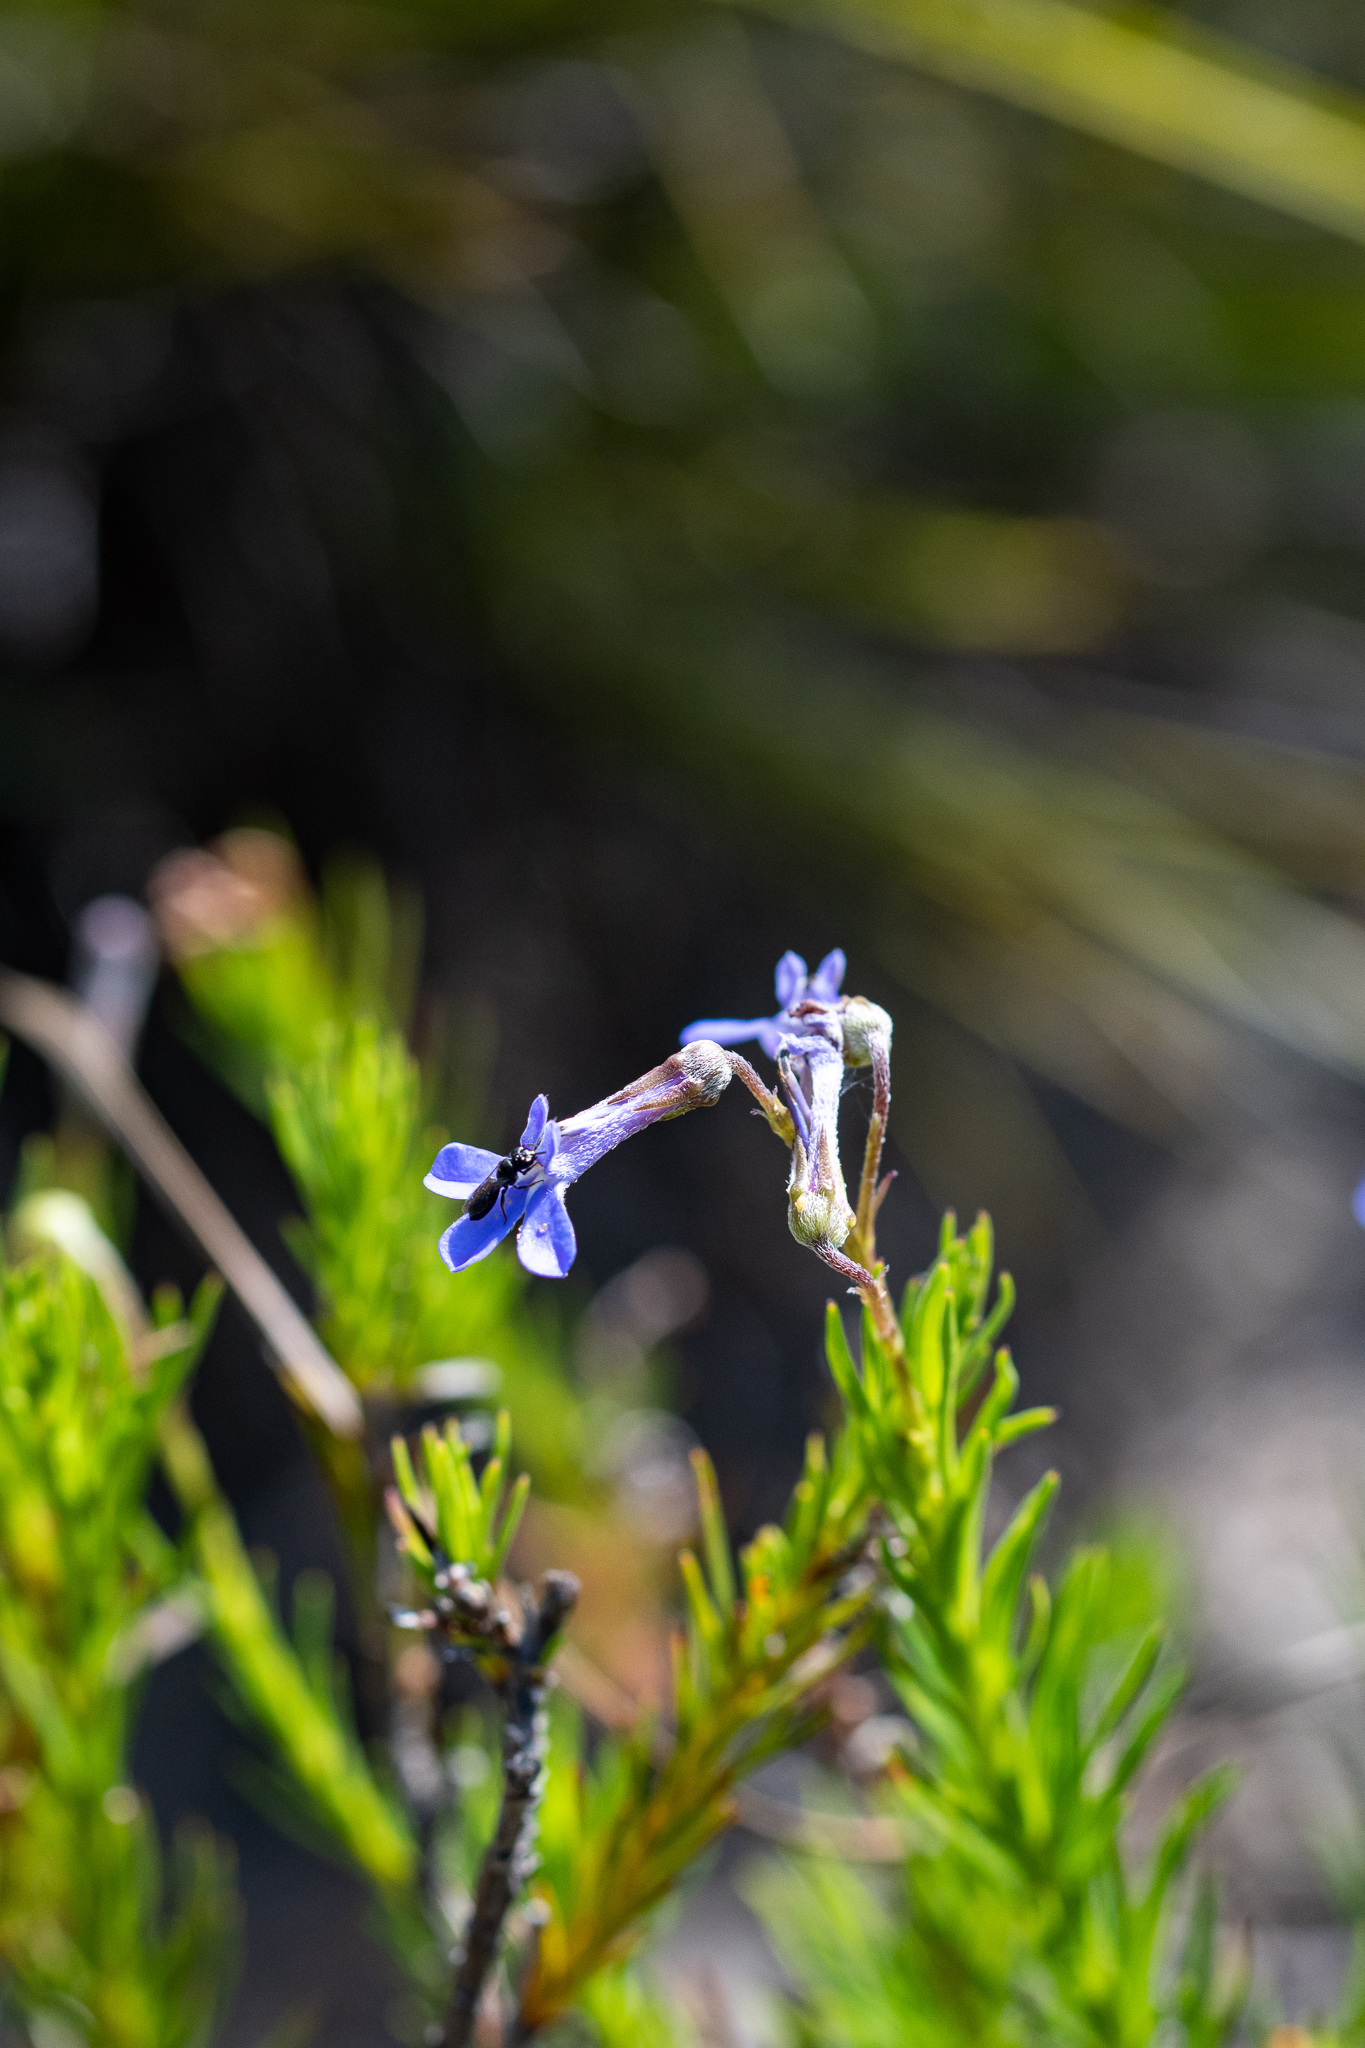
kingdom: Plantae
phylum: Tracheophyta
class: Magnoliopsida
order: Asterales
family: Campanulaceae
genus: Lobelia
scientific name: Lobelia pinifolia
